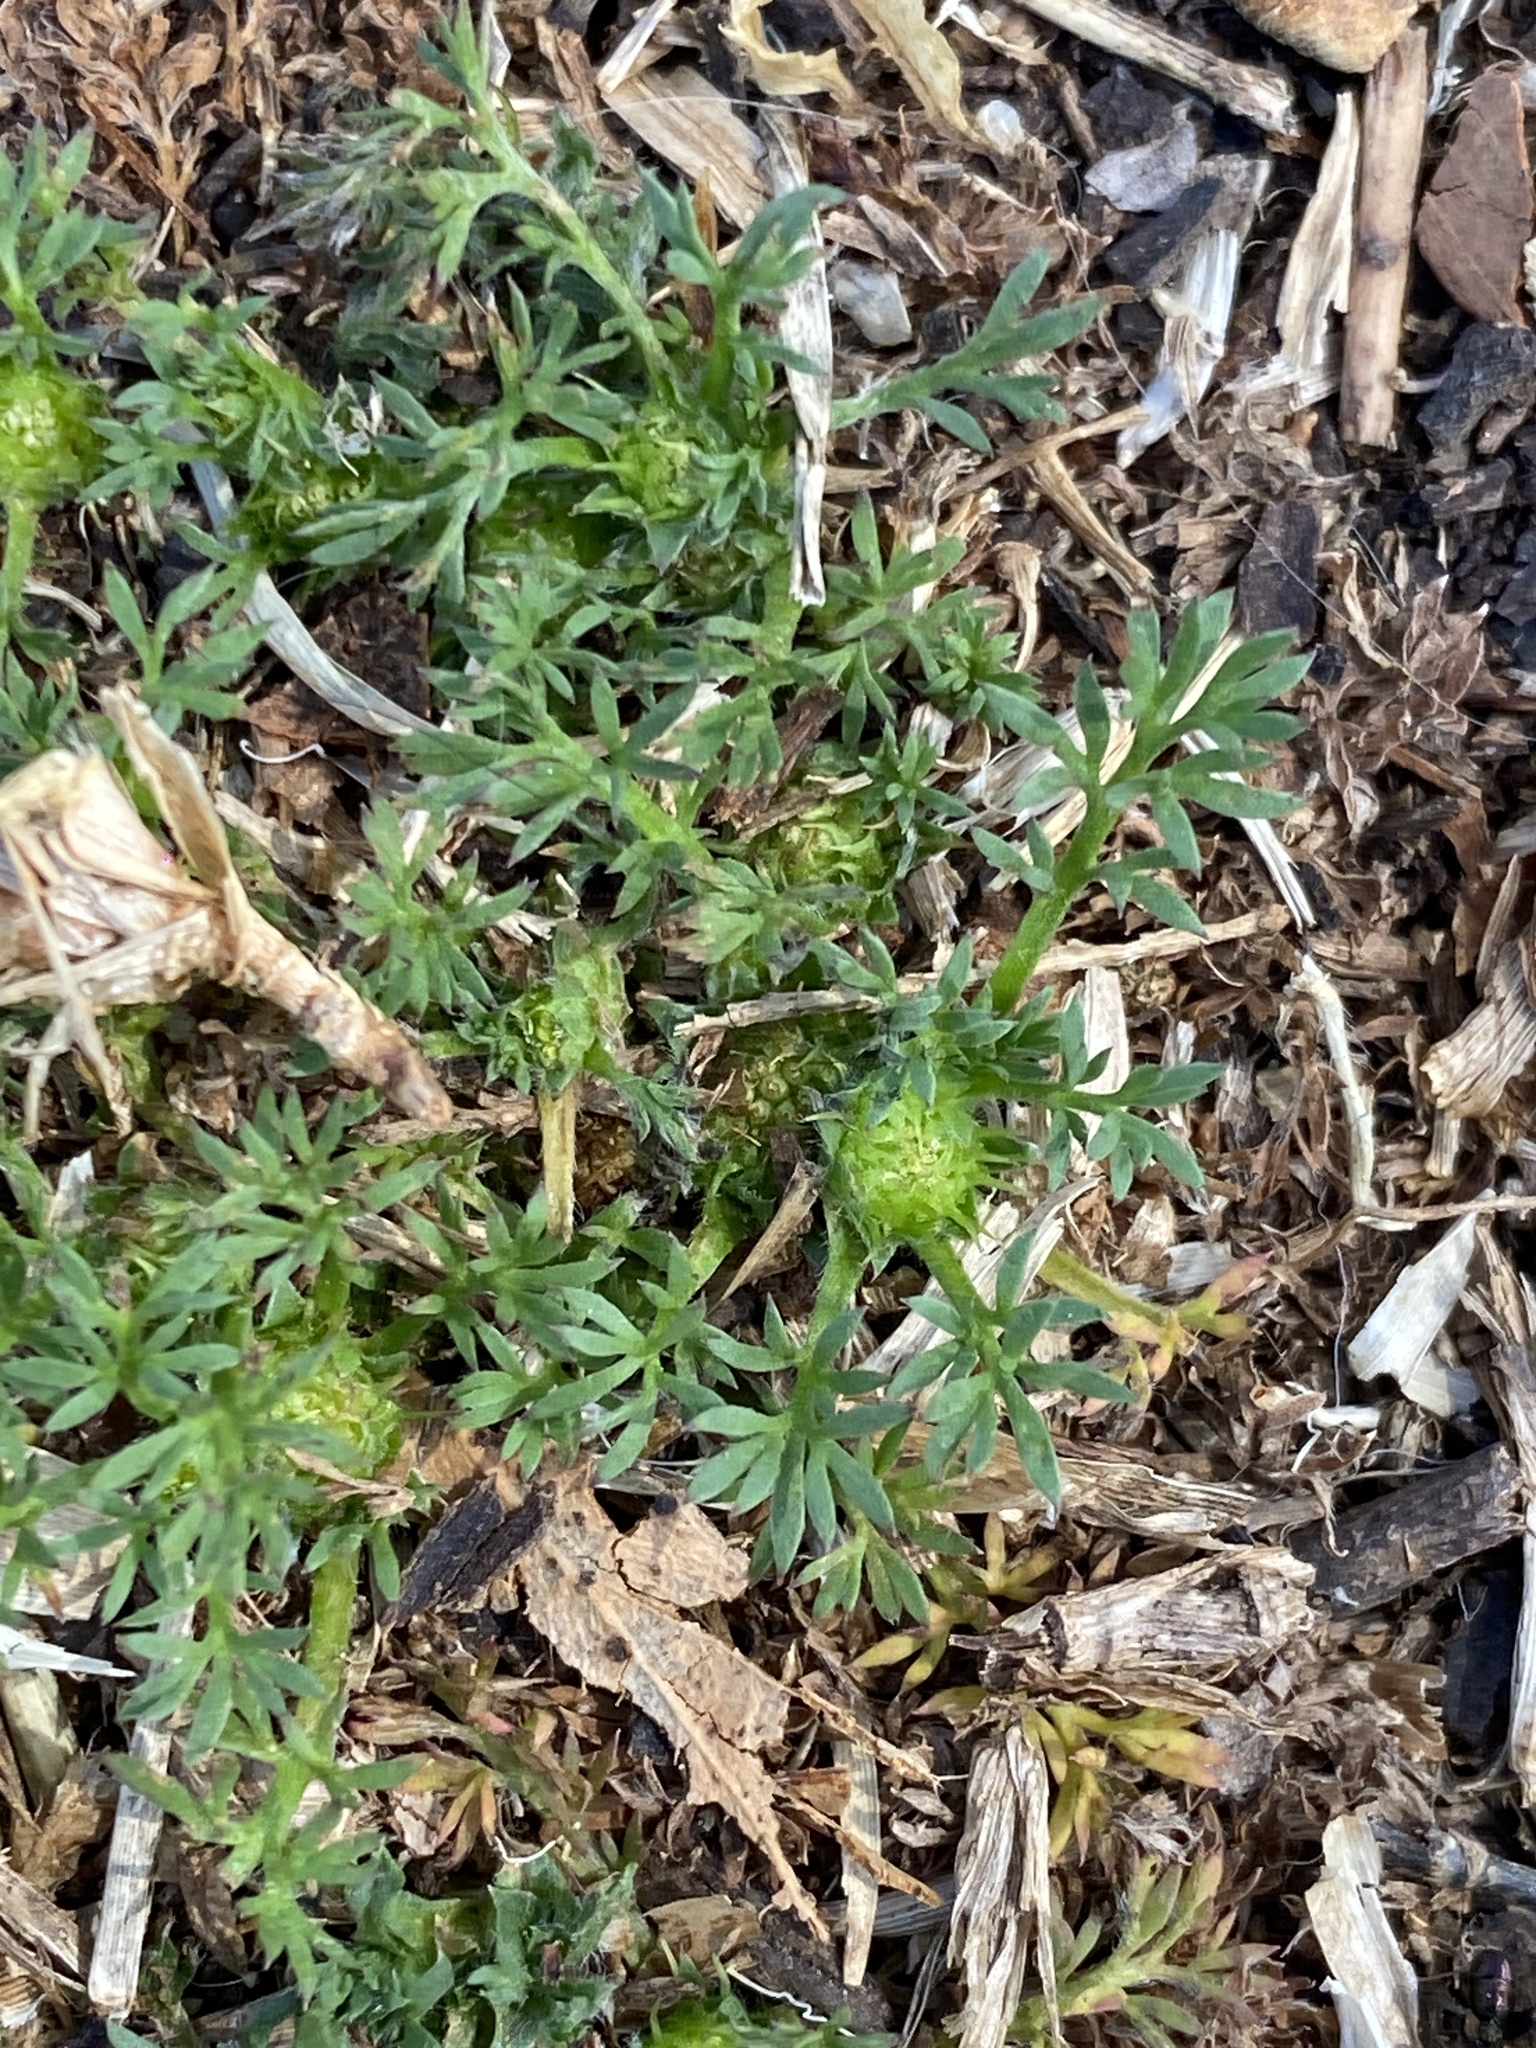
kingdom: Plantae
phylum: Tracheophyta
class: Magnoliopsida
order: Asterales
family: Asteraceae
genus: Soliva
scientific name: Soliva sessilis
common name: Field burrweed
